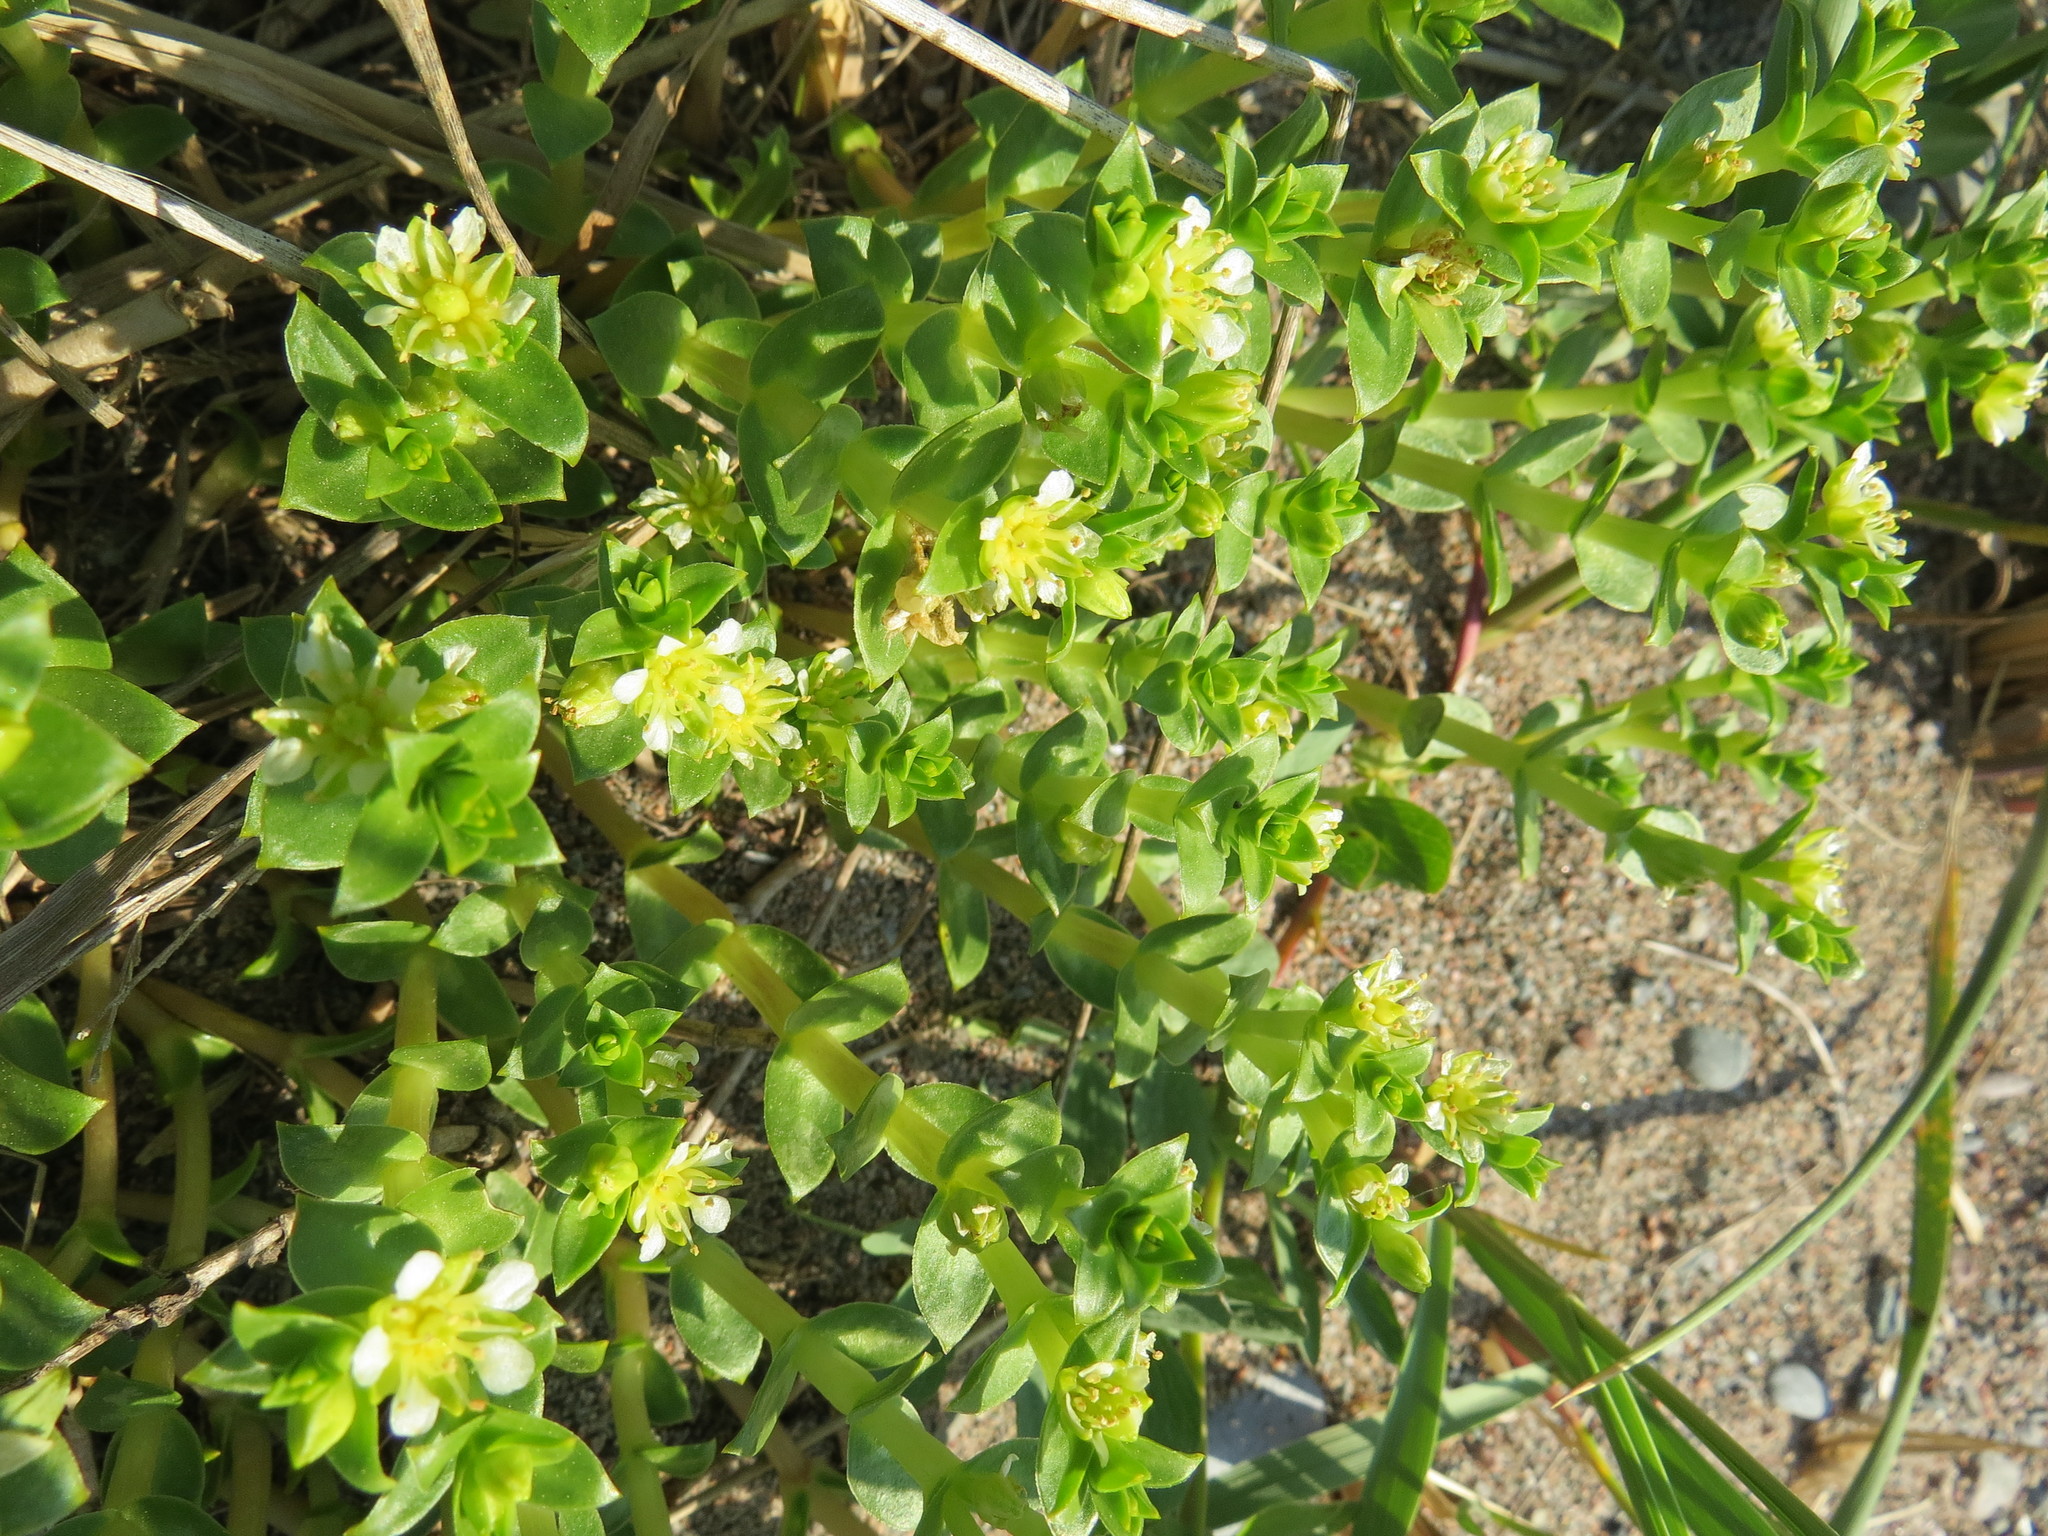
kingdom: Plantae
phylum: Tracheophyta
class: Magnoliopsida
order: Caryophyllales
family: Caryophyllaceae
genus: Honckenya
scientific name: Honckenya peploides
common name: Sea sandwort
